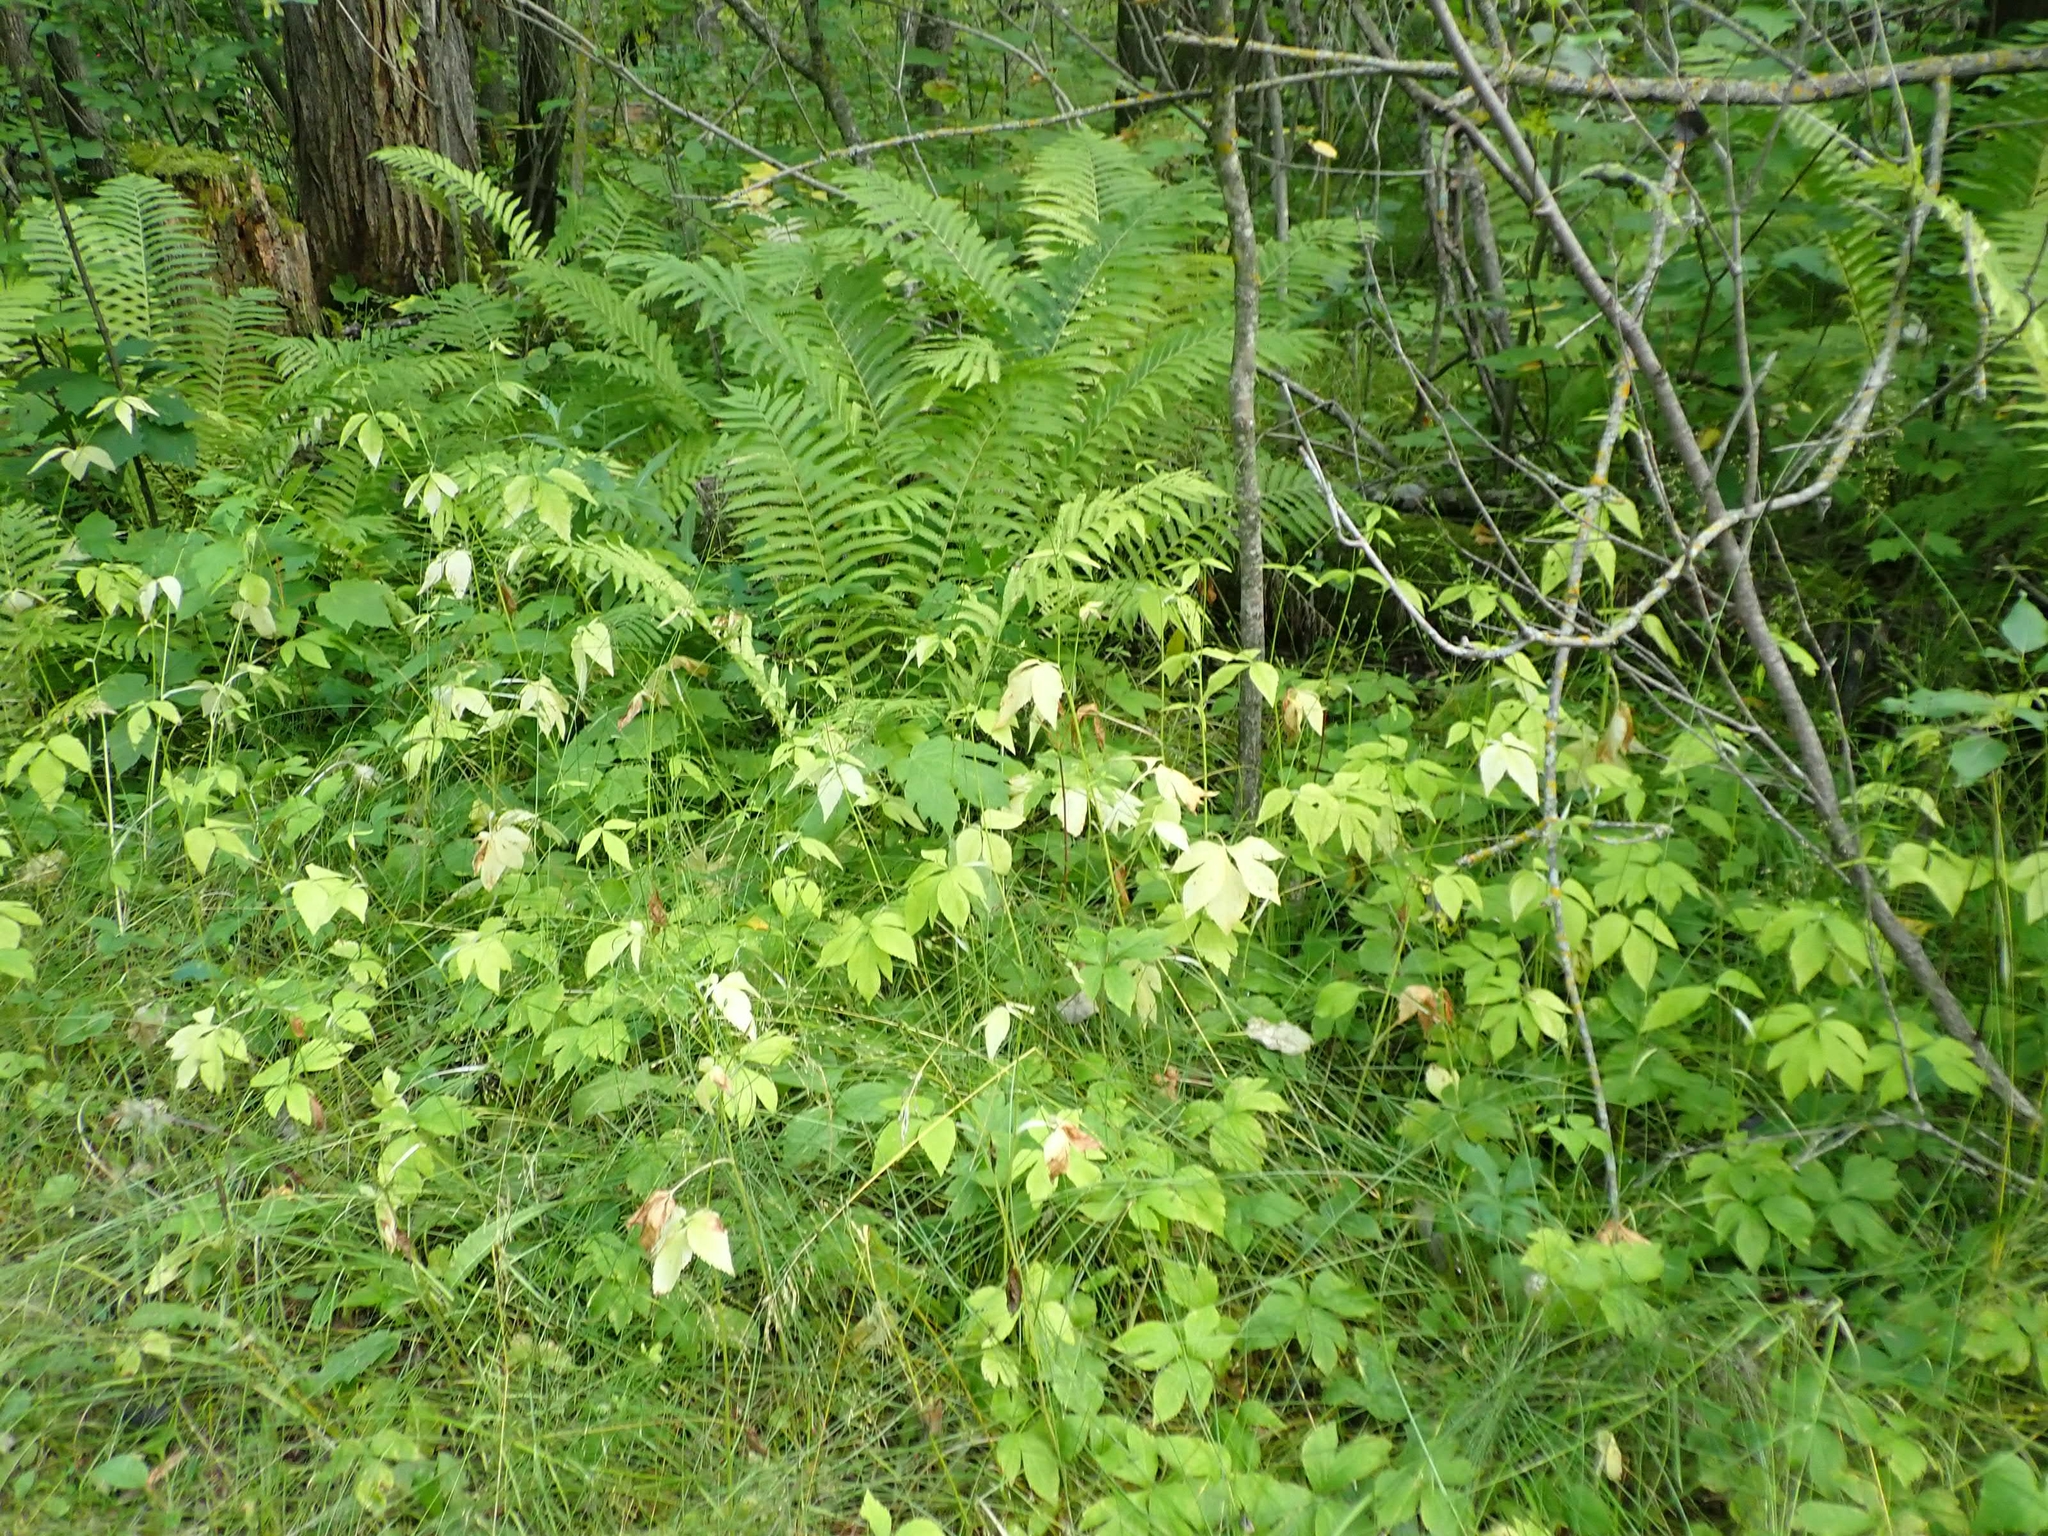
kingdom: Plantae
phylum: Tracheophyta
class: Magnoliopsida
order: Apiales
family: Apiaceae
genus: Cryptotaenia
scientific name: Cryptotaenia canadensis
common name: Honewort
